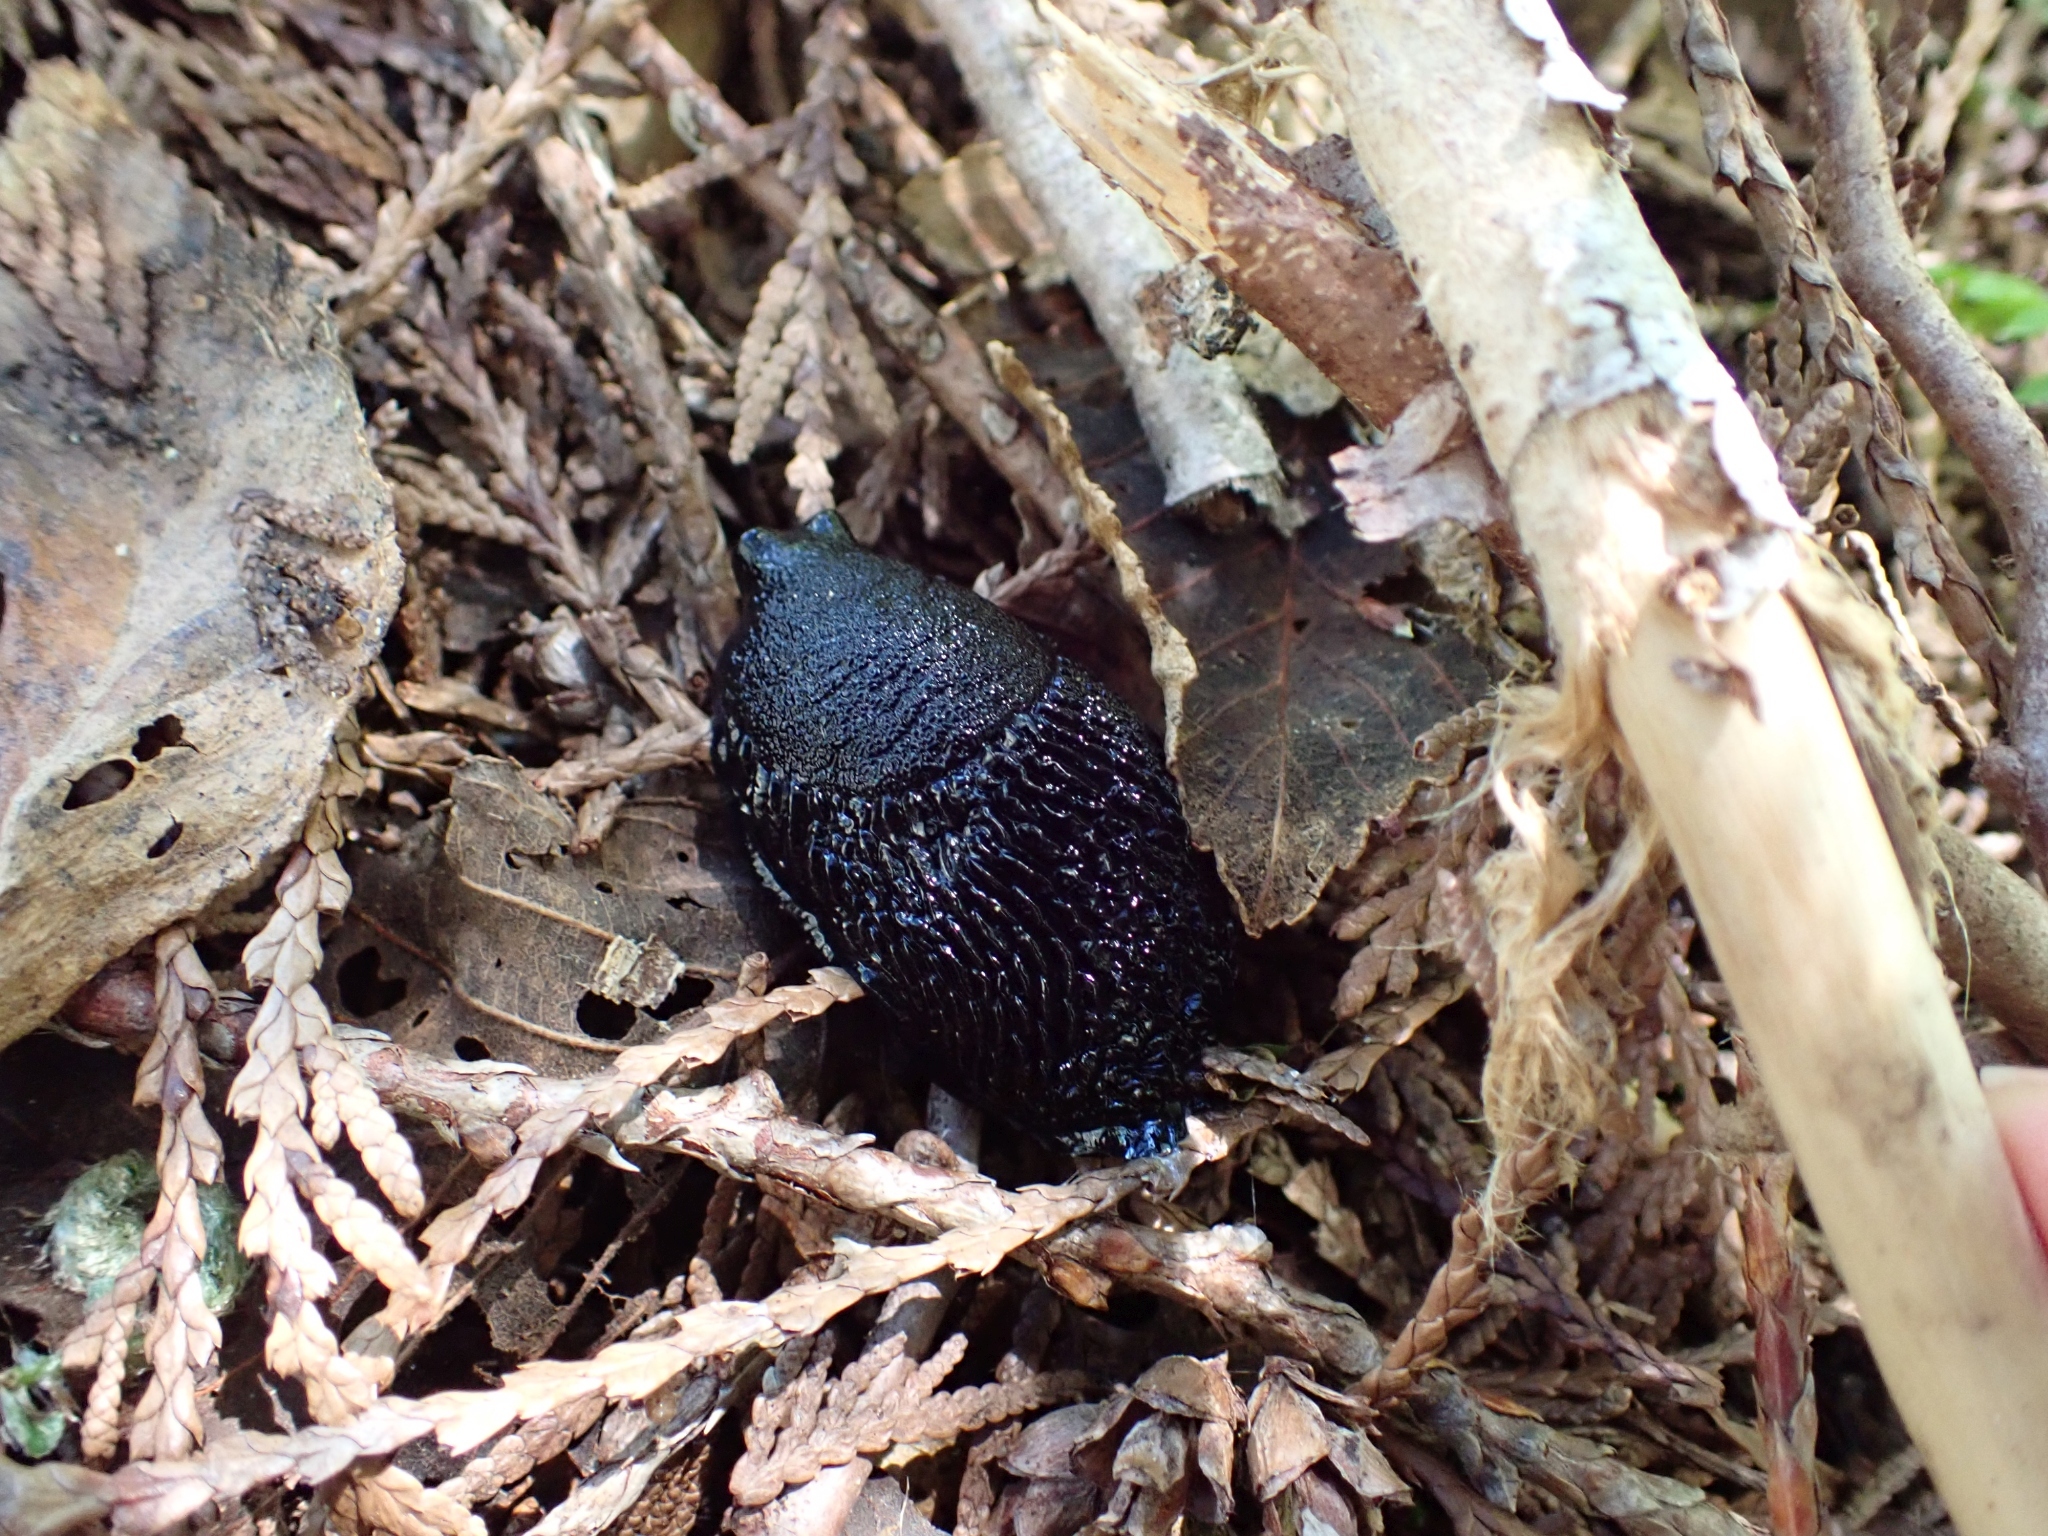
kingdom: Animalia
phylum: Mollusca
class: Gastropoda
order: Stylommatophora
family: Arionidae
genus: Arion
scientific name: Arion
